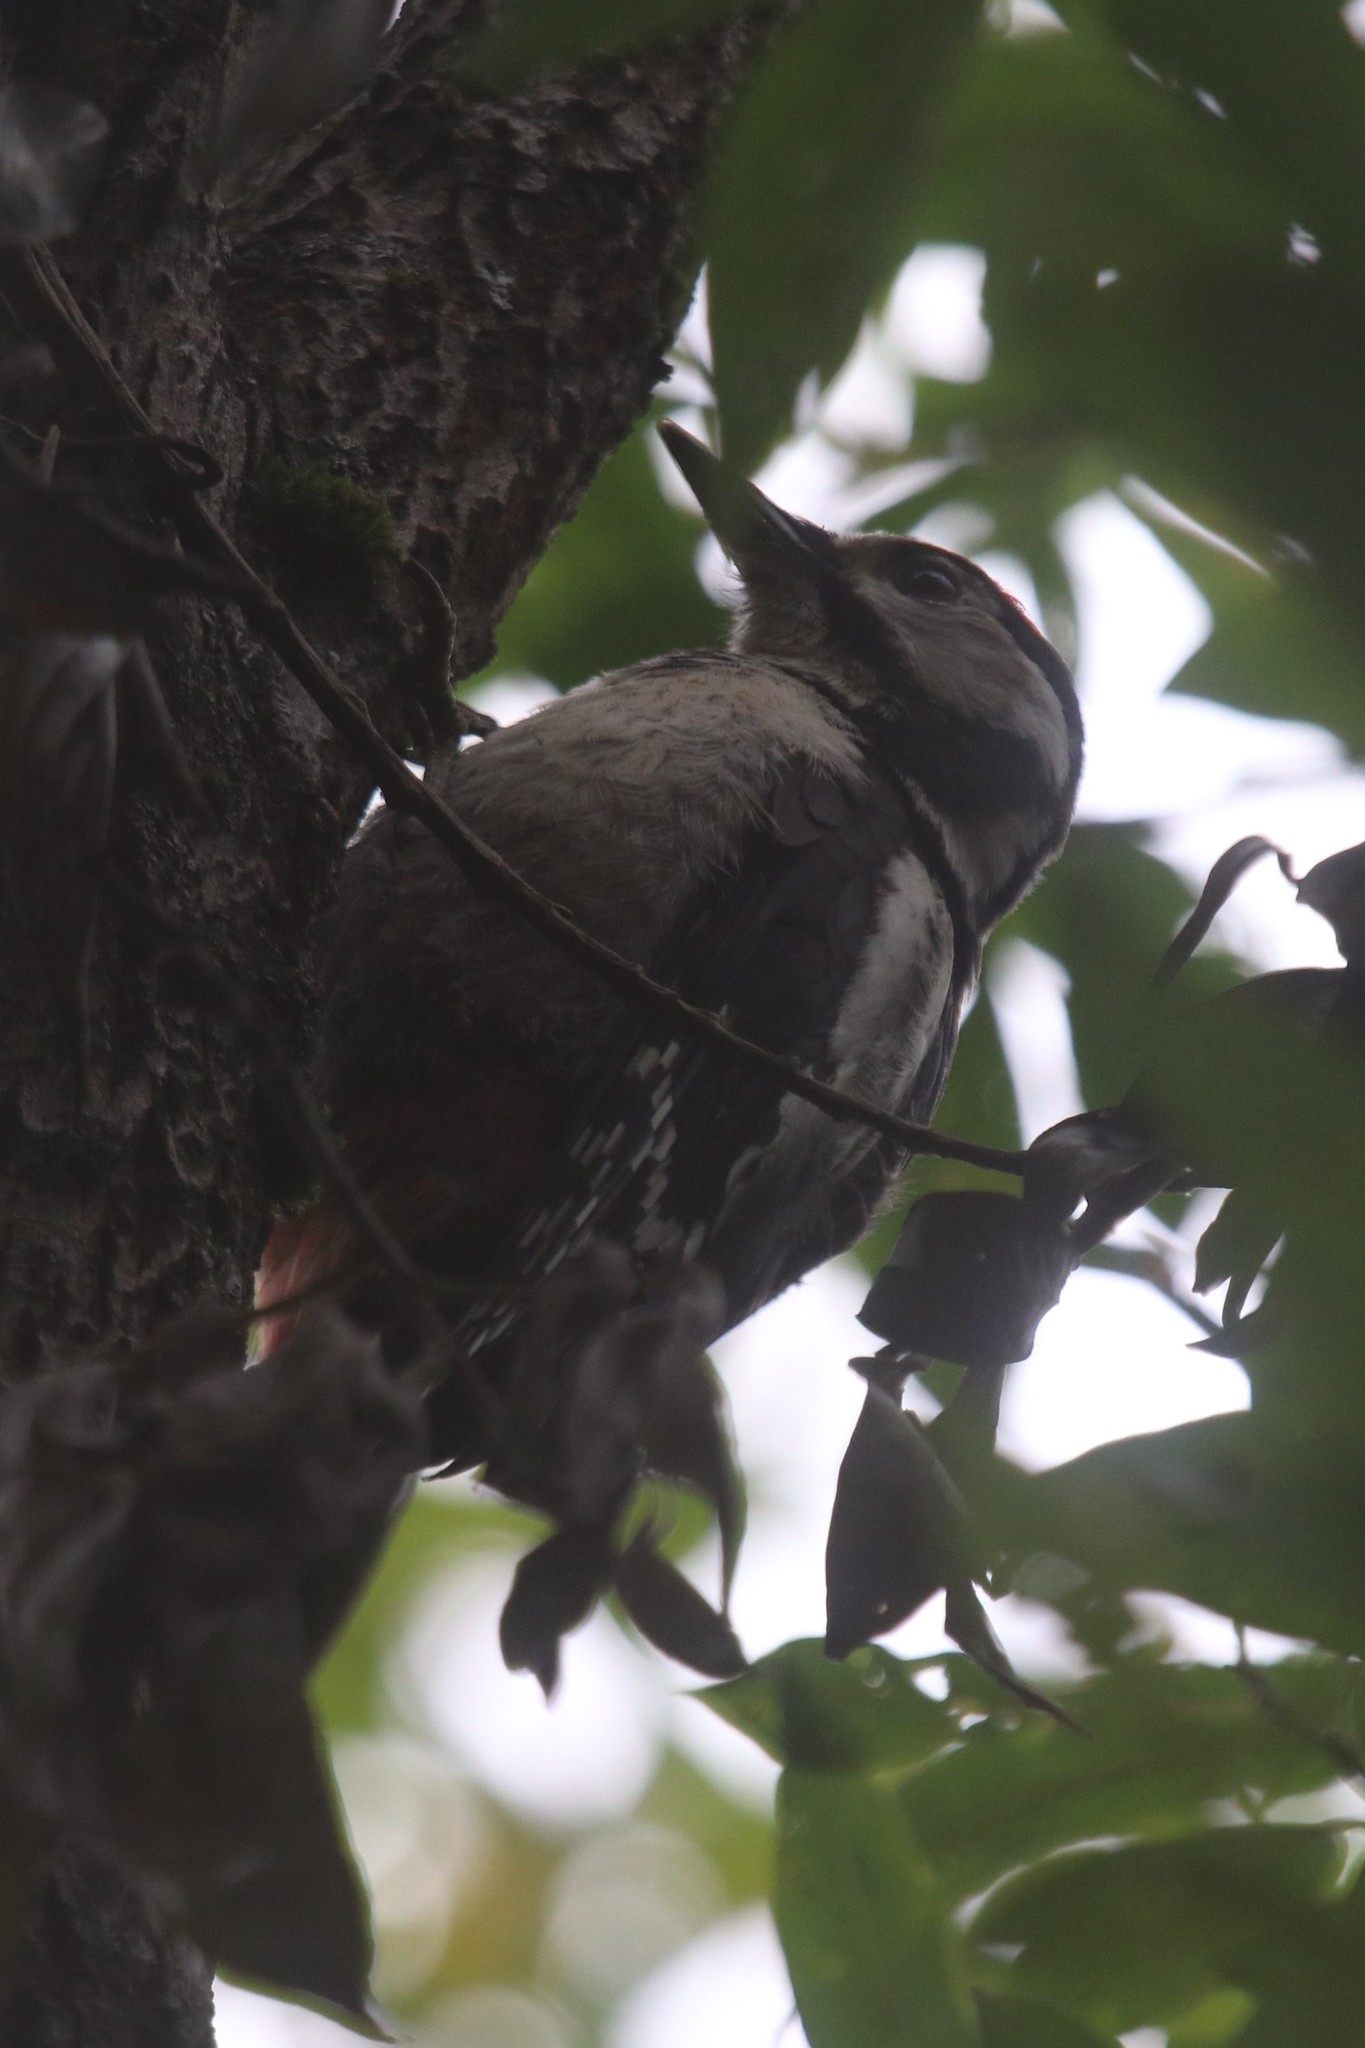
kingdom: Animalia
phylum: Chordata
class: Aves
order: Piciformes
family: Picidae
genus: Dendrocopos
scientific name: Dendrocopos major
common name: Great spotted woodpecker
